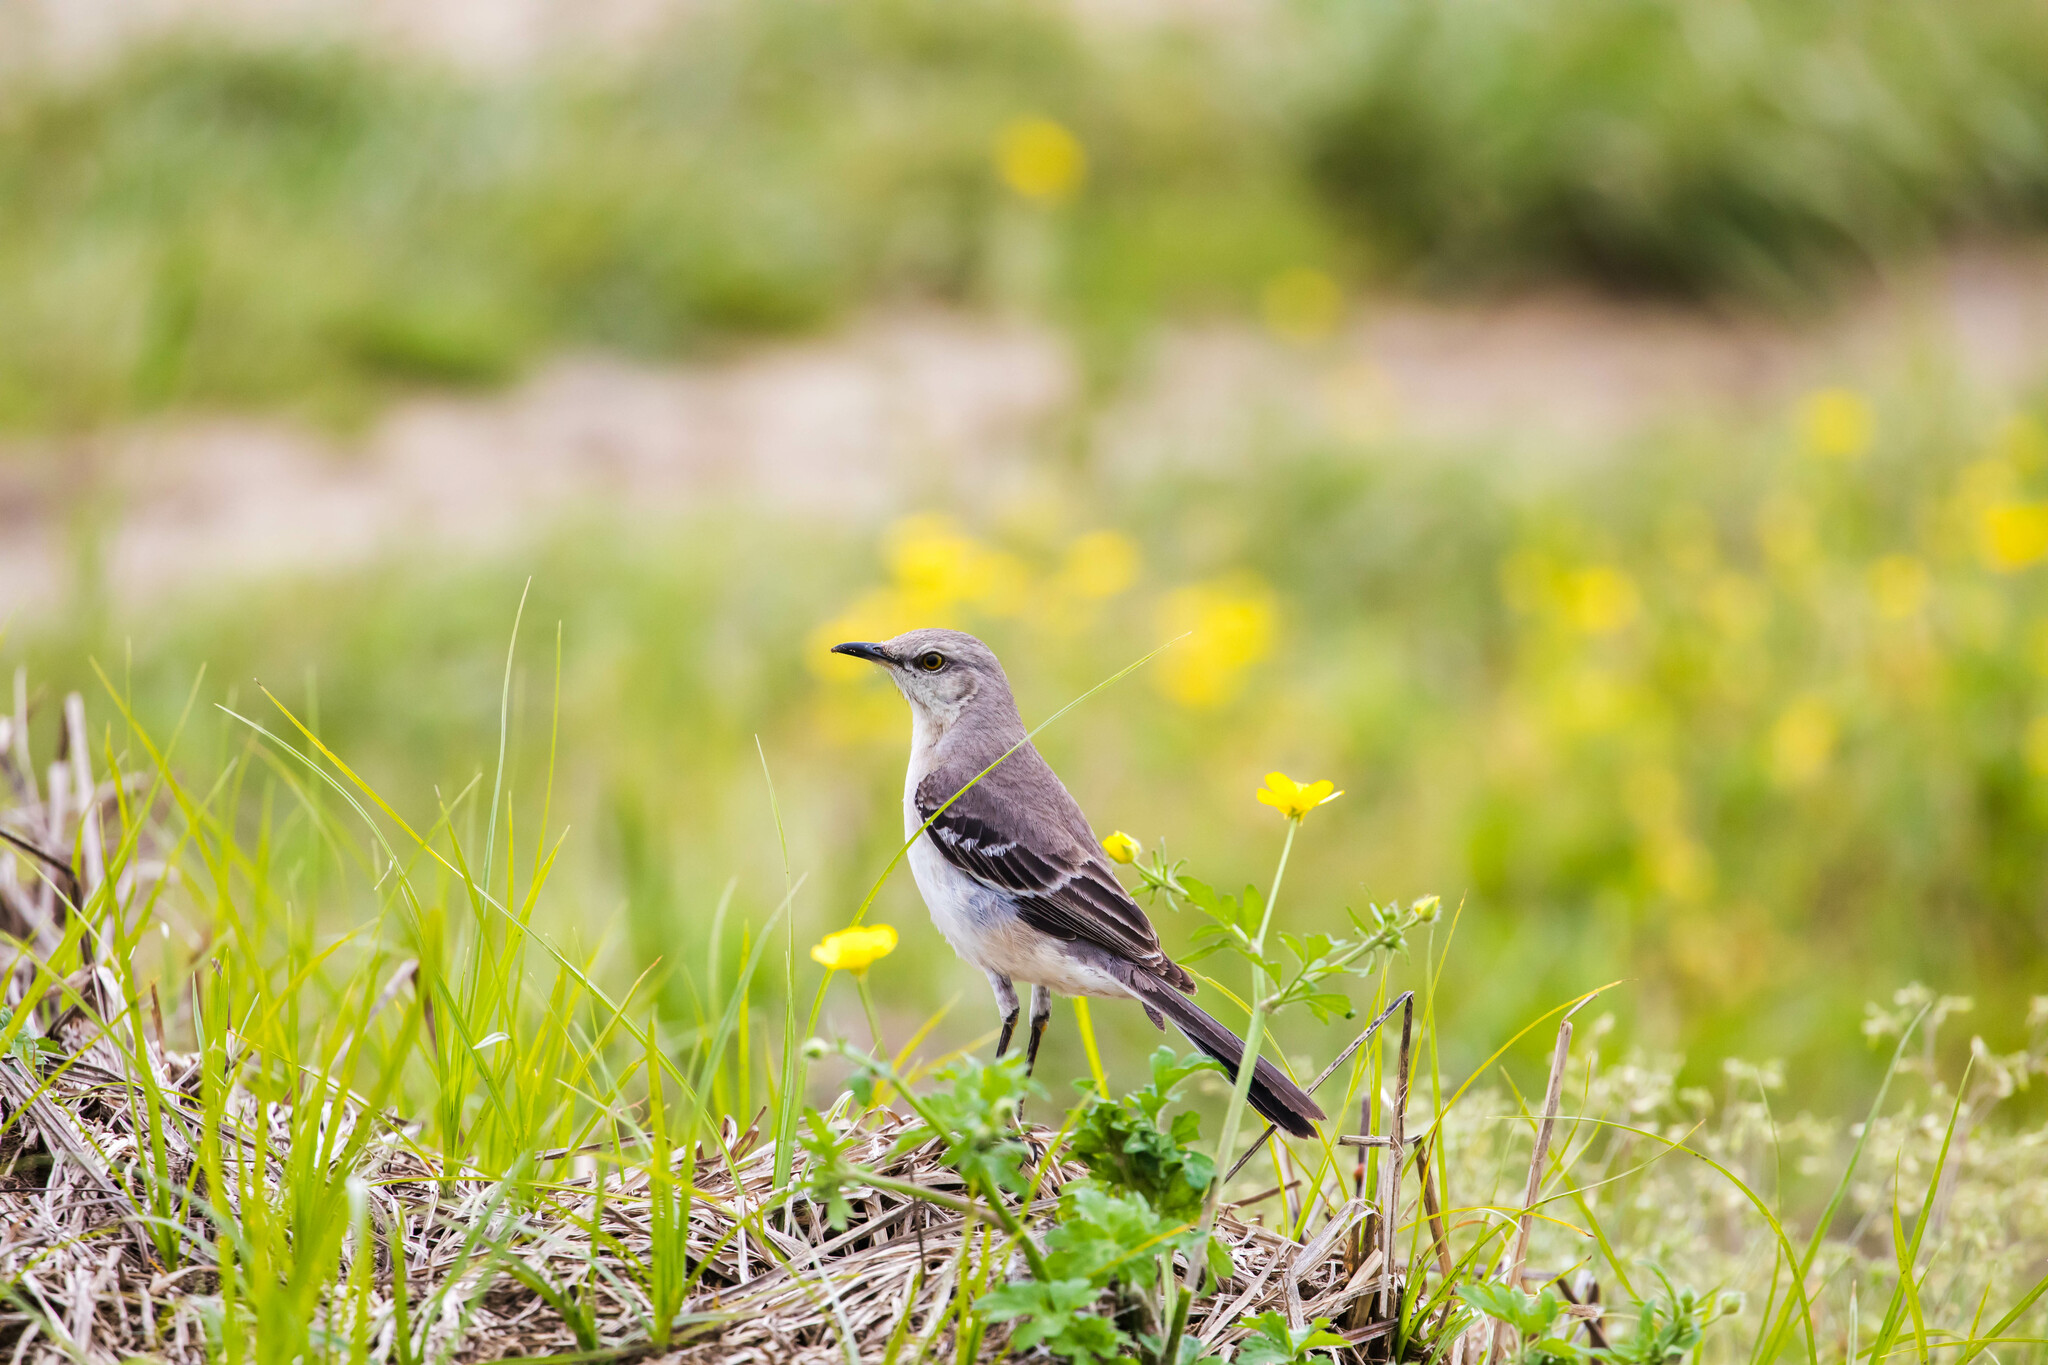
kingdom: Animalia
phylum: Chordata
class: Aves
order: Passeriformes
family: Mimidae
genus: Mimus
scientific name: Mimus polyglottos
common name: Northern mockingbird
